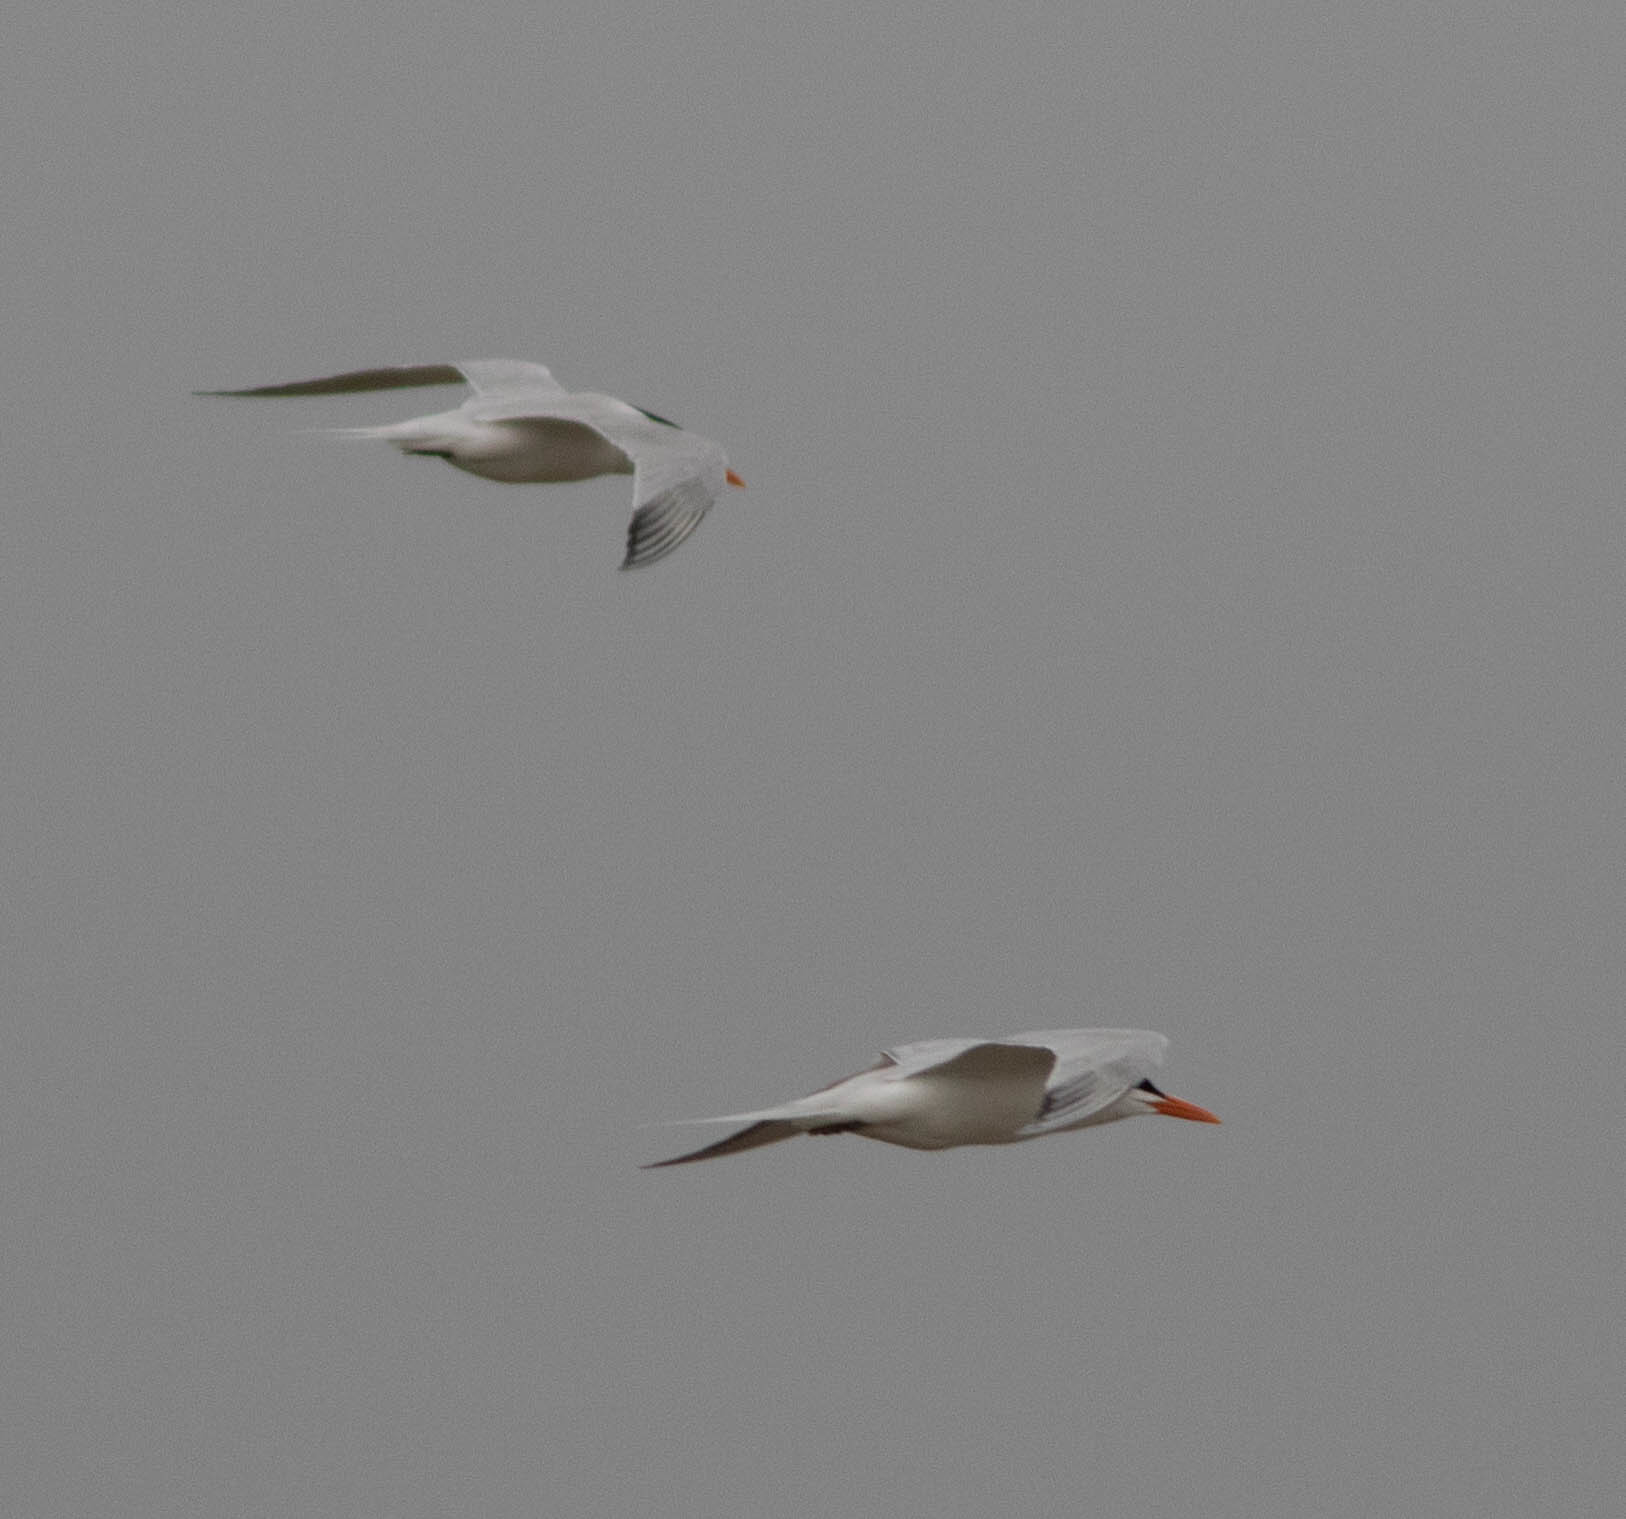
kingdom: Animalia
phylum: Chordata
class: Aves
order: Charadriiformes
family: Laridae
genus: Thalasseus
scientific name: Thalasseus maximus
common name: Royal tern
